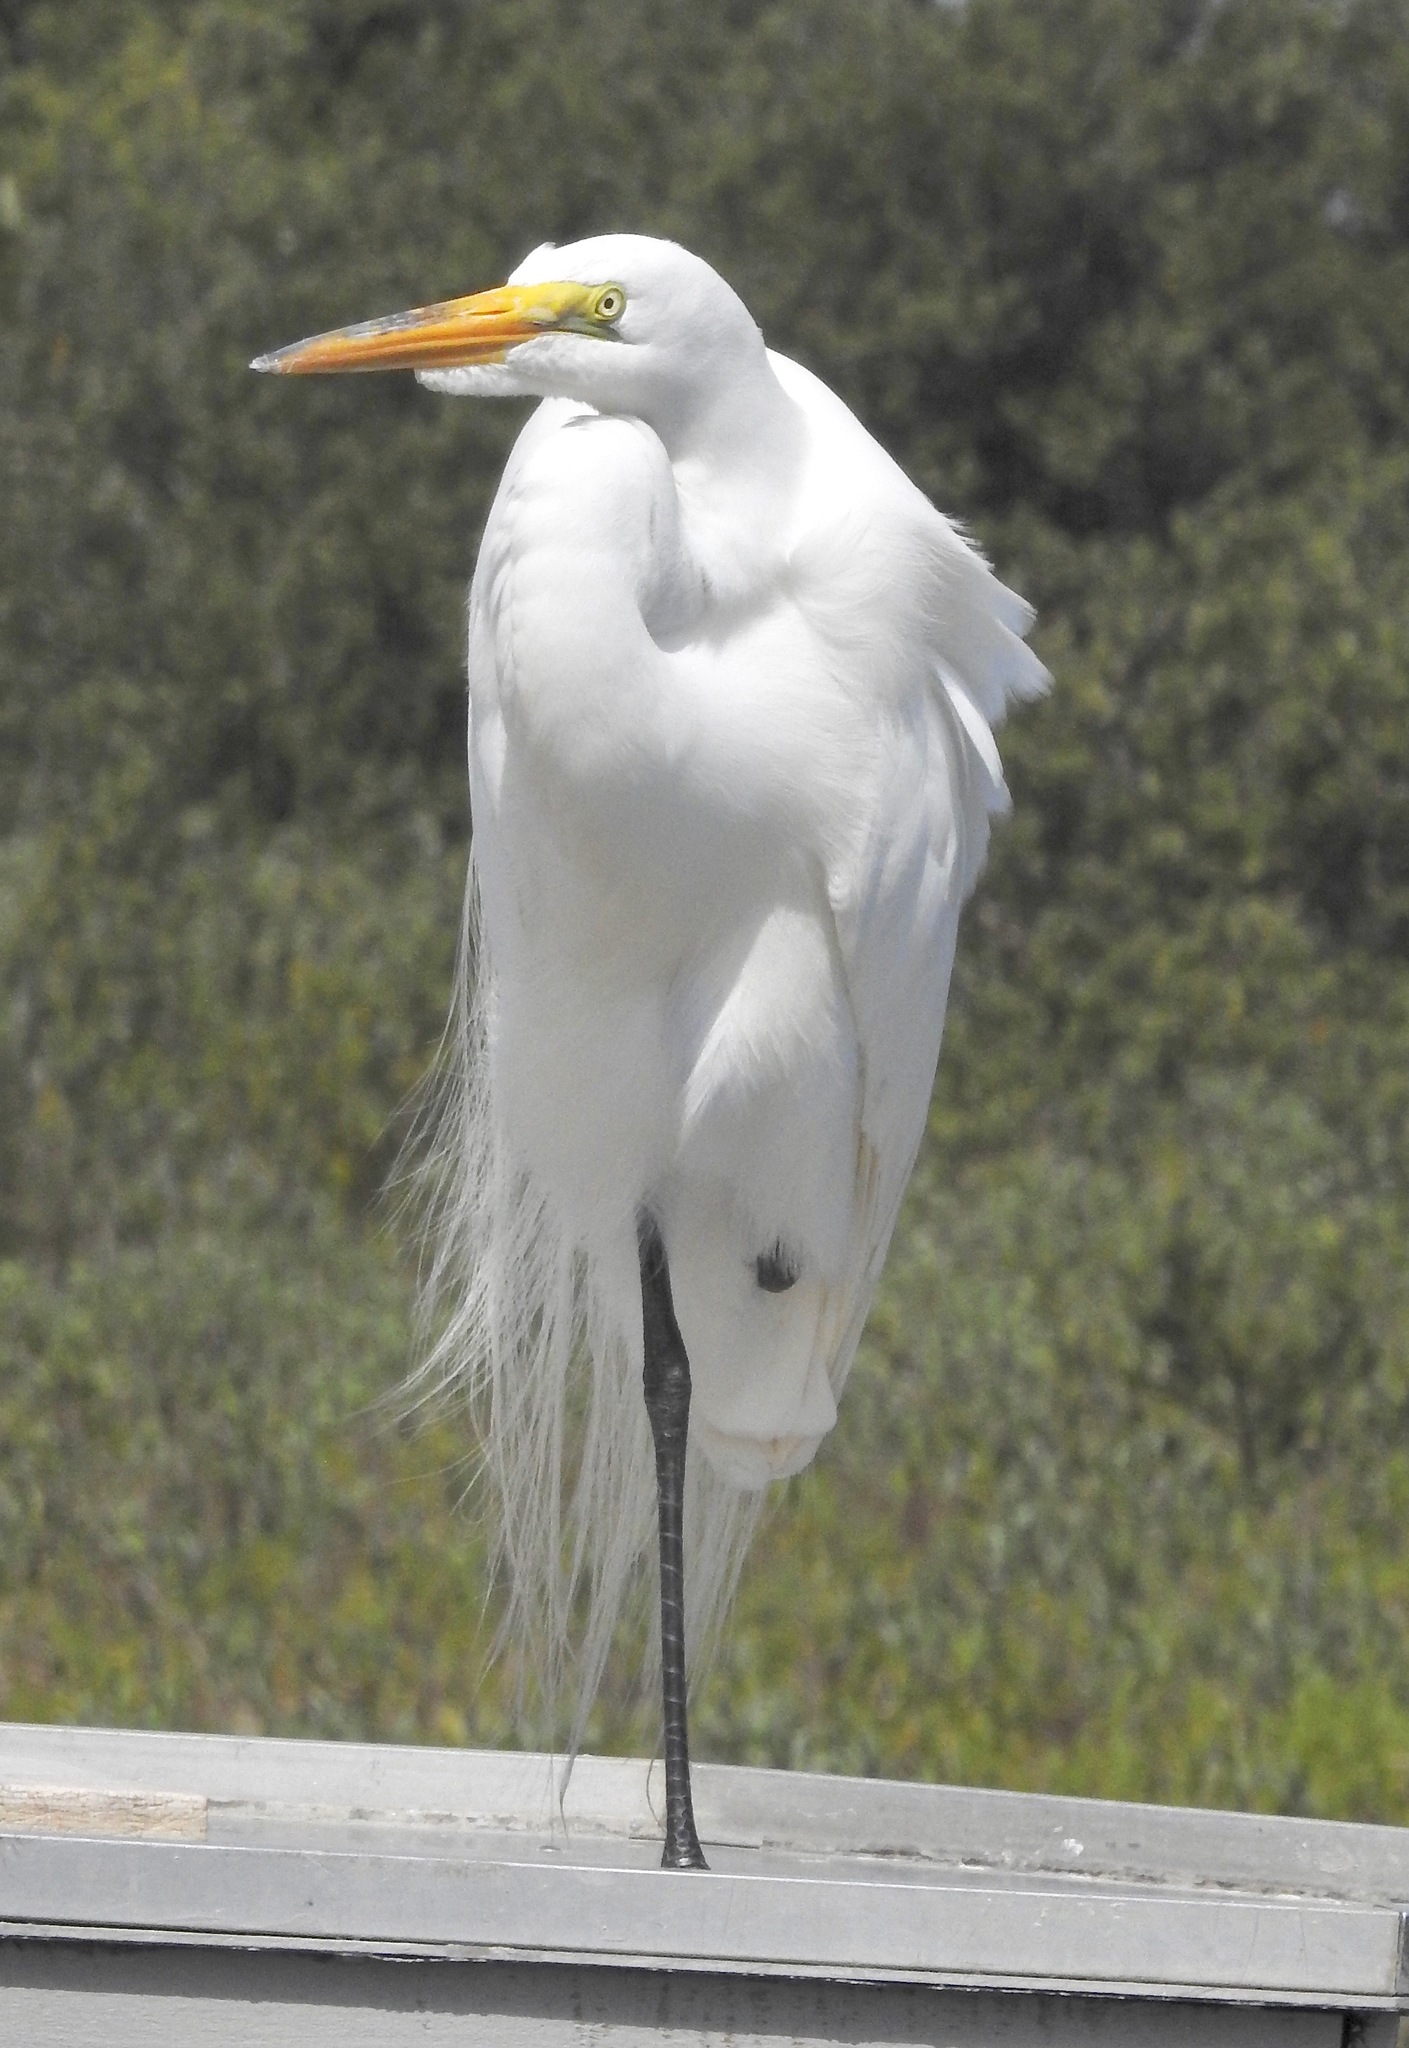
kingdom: Animalia
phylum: Chordata
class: Aves
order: Pelecaniformes
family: Ardeidae
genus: Ardea
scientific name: Ardea alba
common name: Great egret
